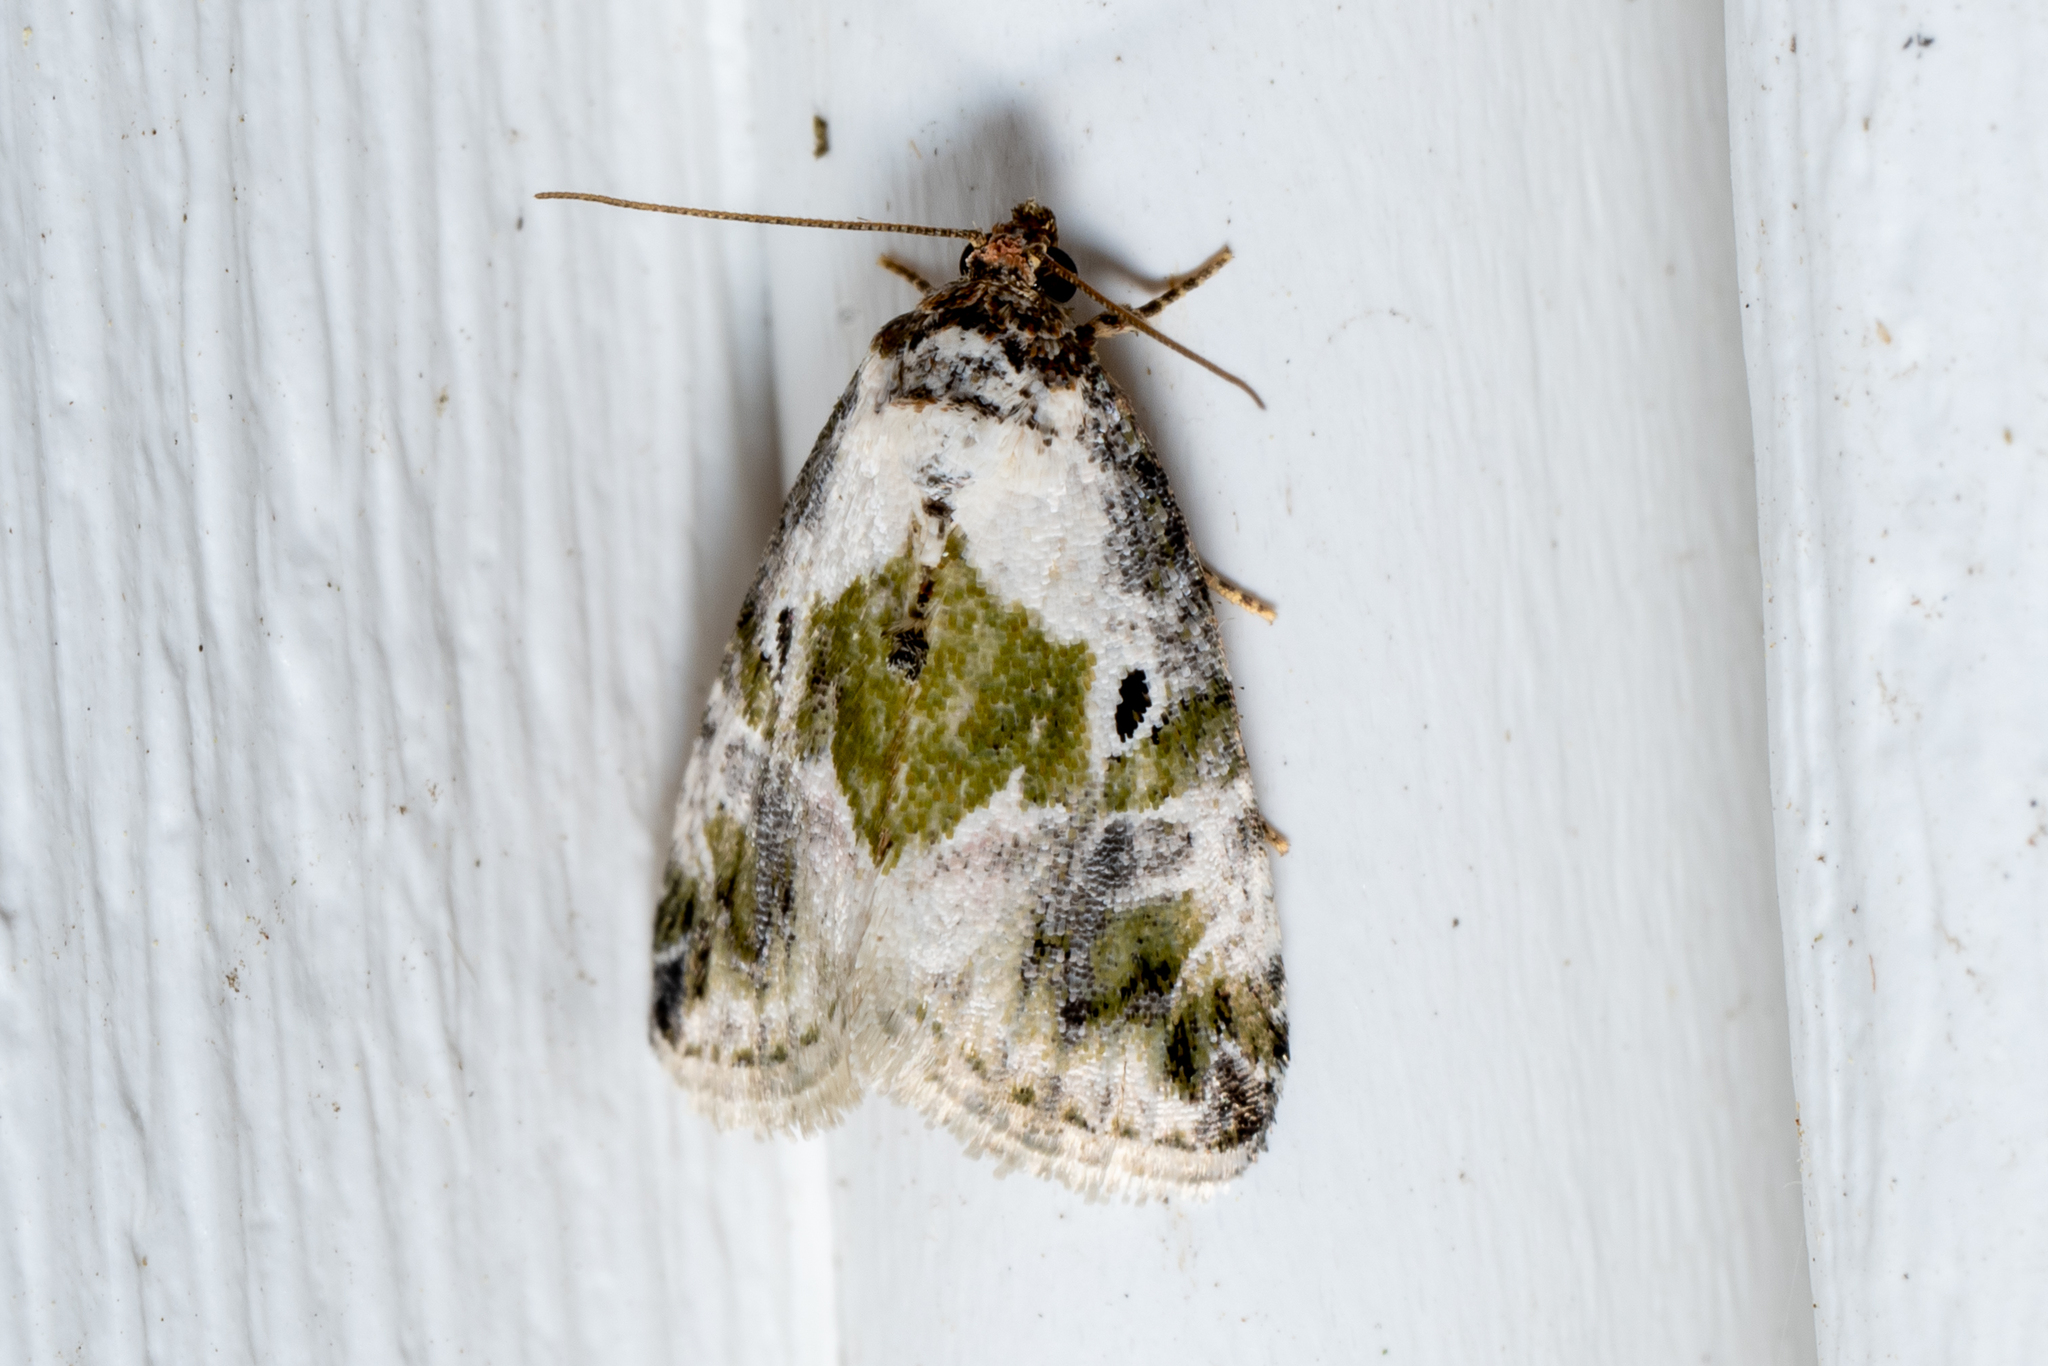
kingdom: Animalia
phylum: Arthropoda
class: Insecta
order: Lepidoptera
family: Noctuidae
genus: Maliattha
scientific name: Maliattha synochitis
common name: Black-dotted glyph
